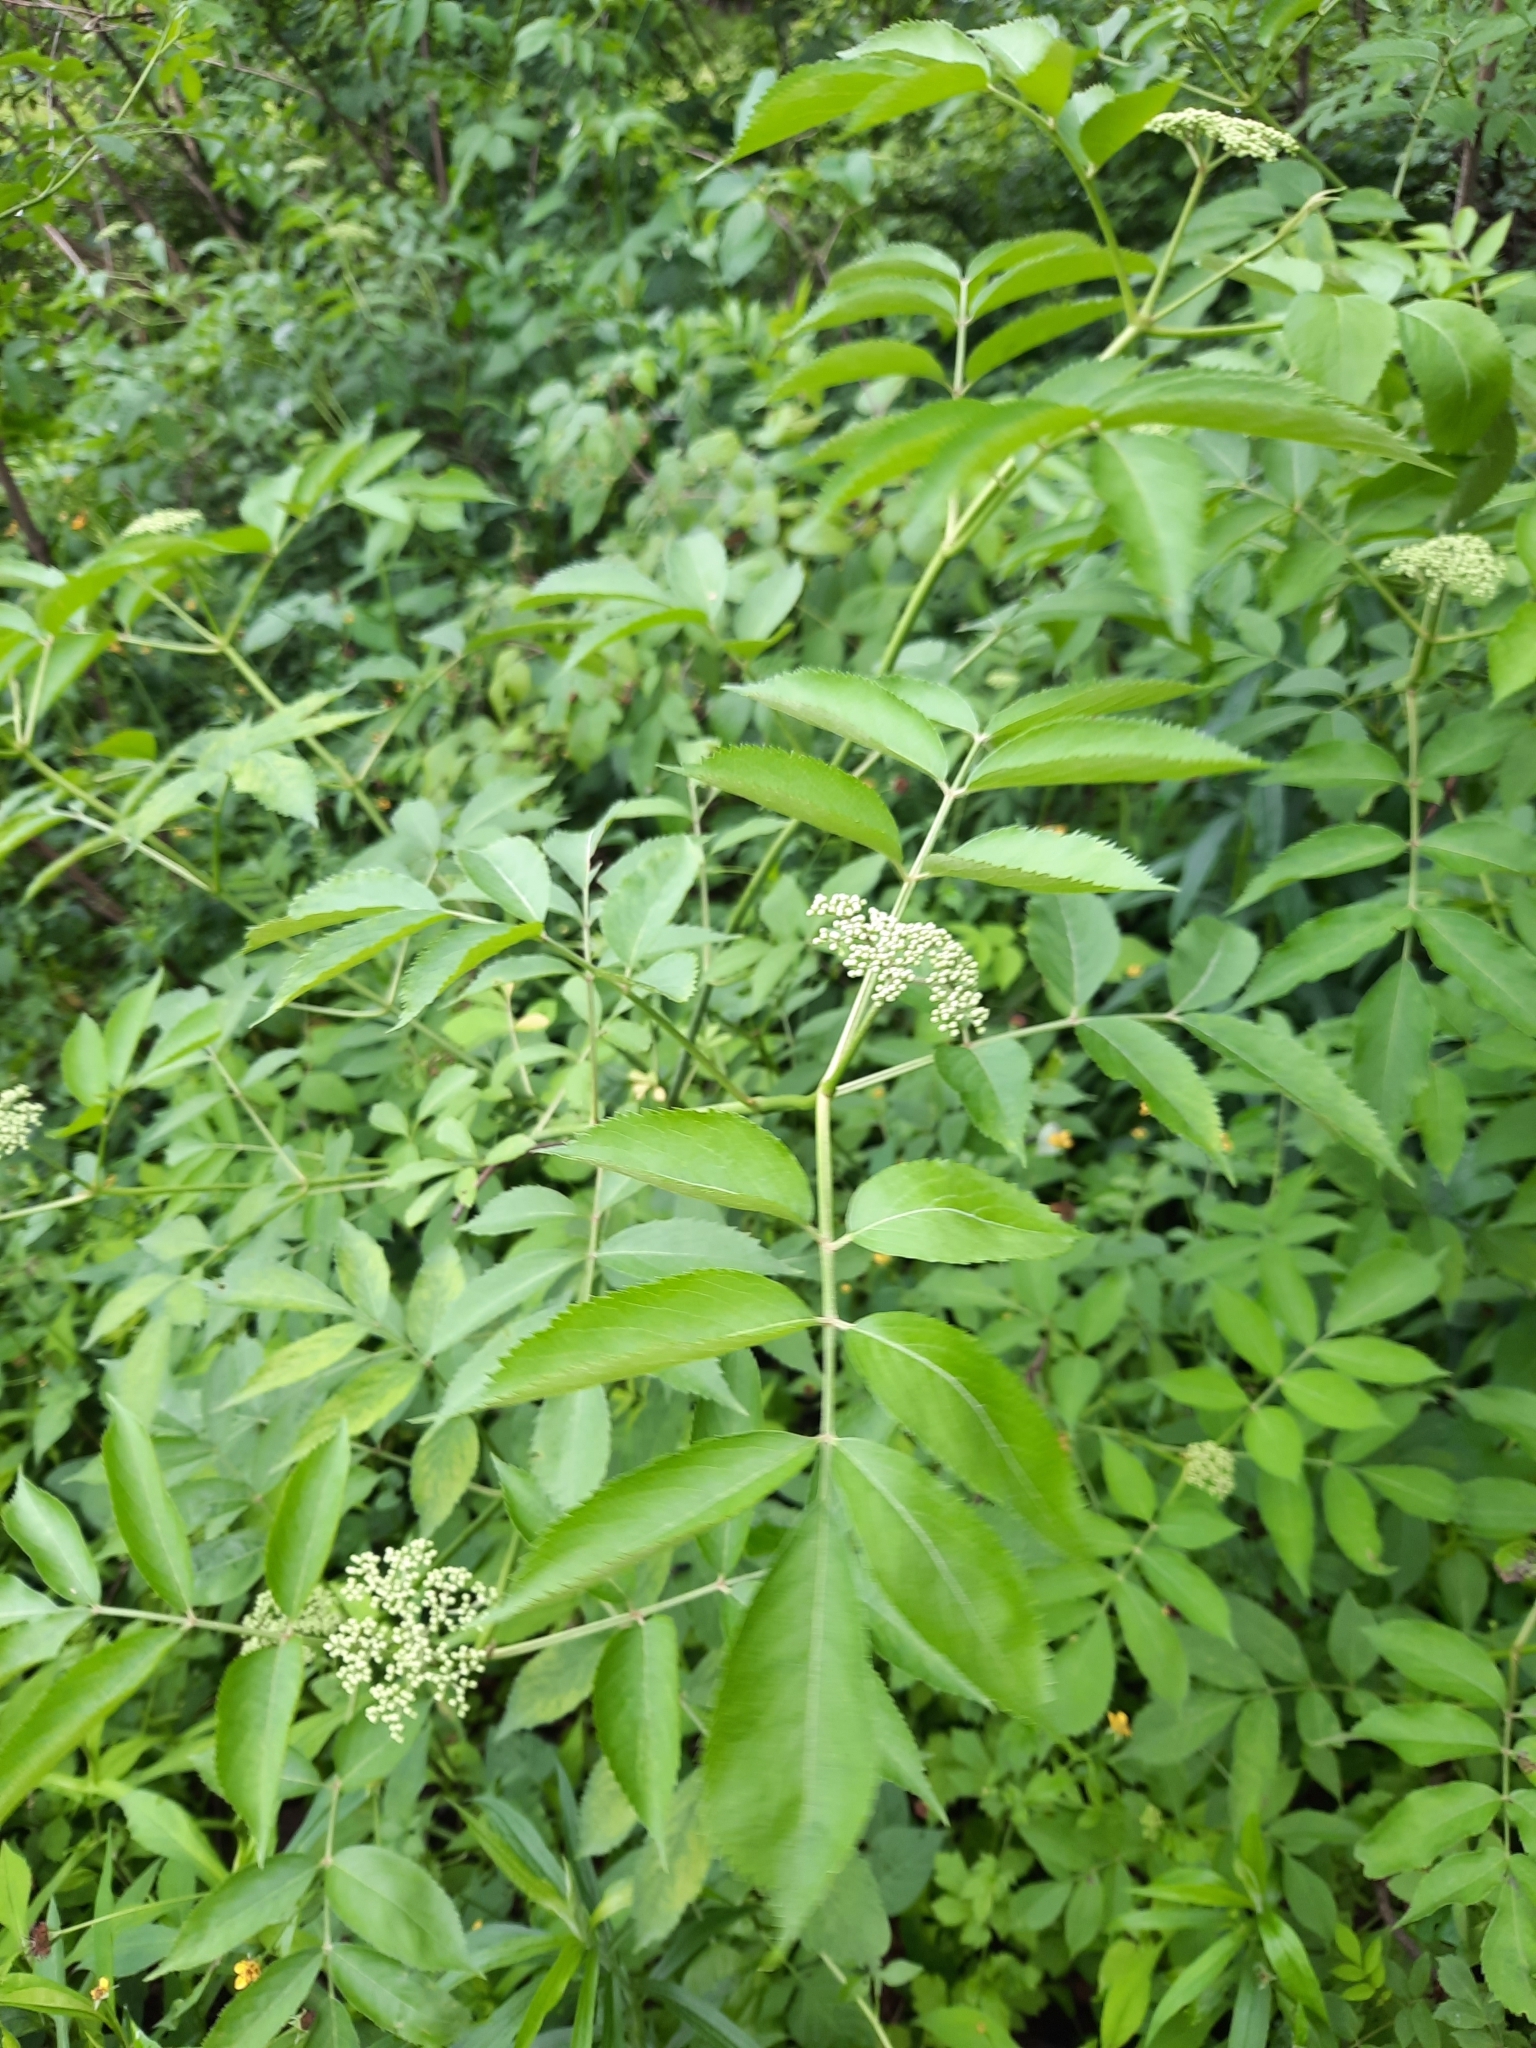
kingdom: Plantae
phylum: Tracheophyta
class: Magnoliopsida
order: Dipsacales
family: Viburnaceae
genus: Sambucus
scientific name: Sambucus canadensis
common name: American elder
